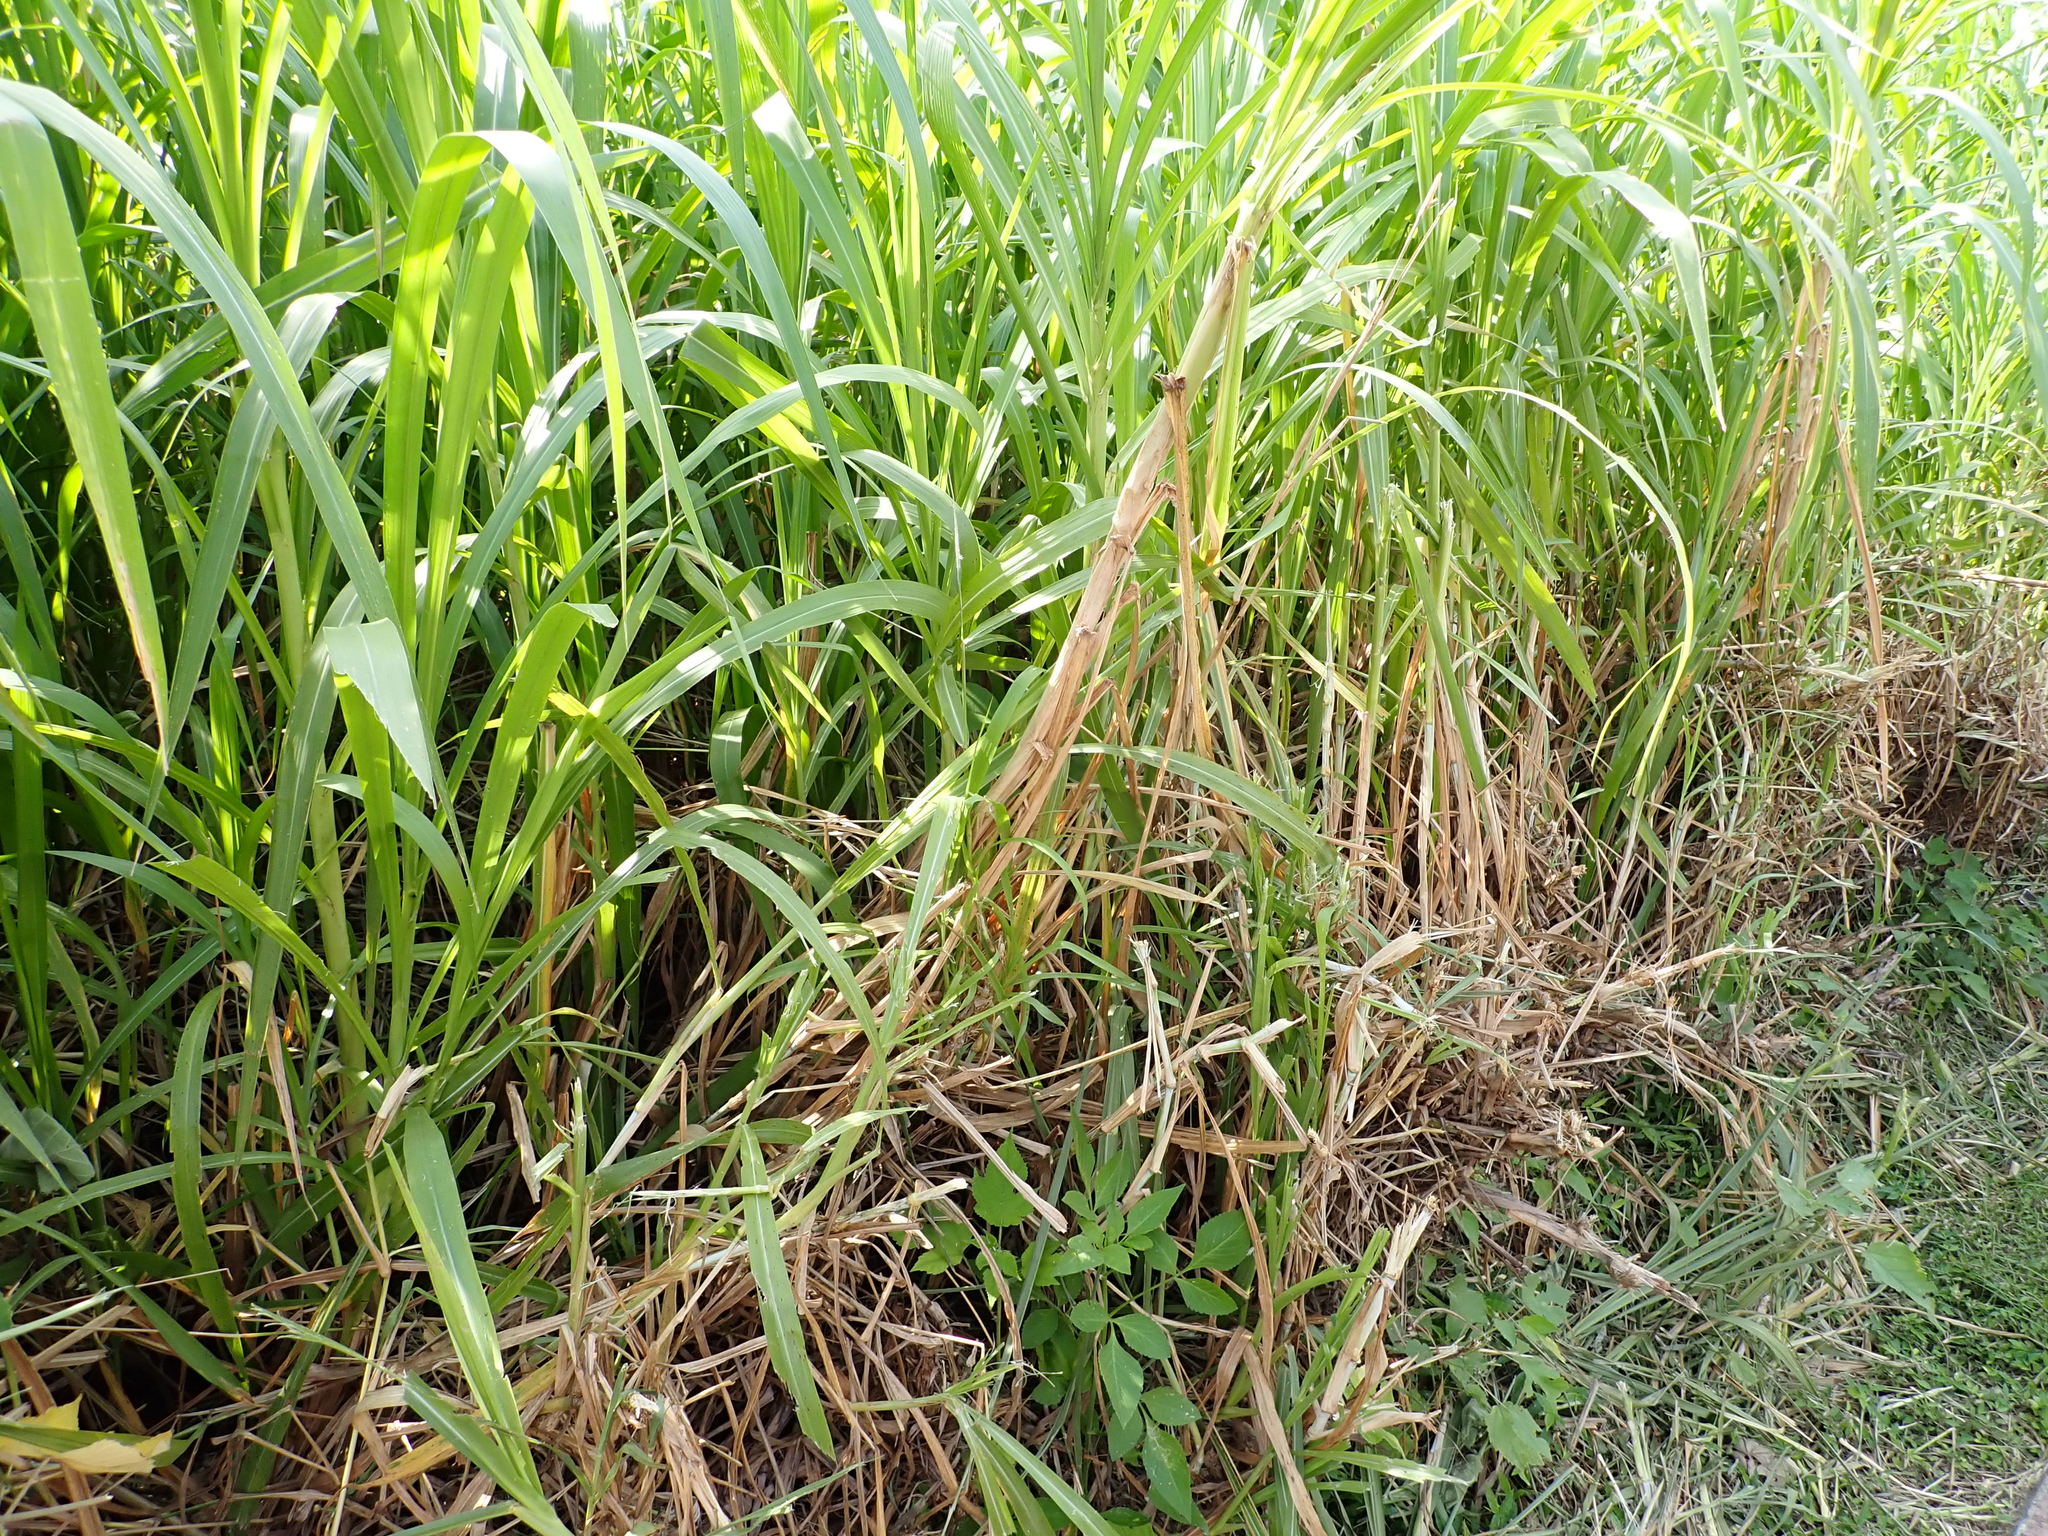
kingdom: Plantae
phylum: Tracheophyta
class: Liliopsida
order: Poales
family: Poaceae
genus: Cenchrus
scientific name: Cenchrus purpureus
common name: Elephant grass
